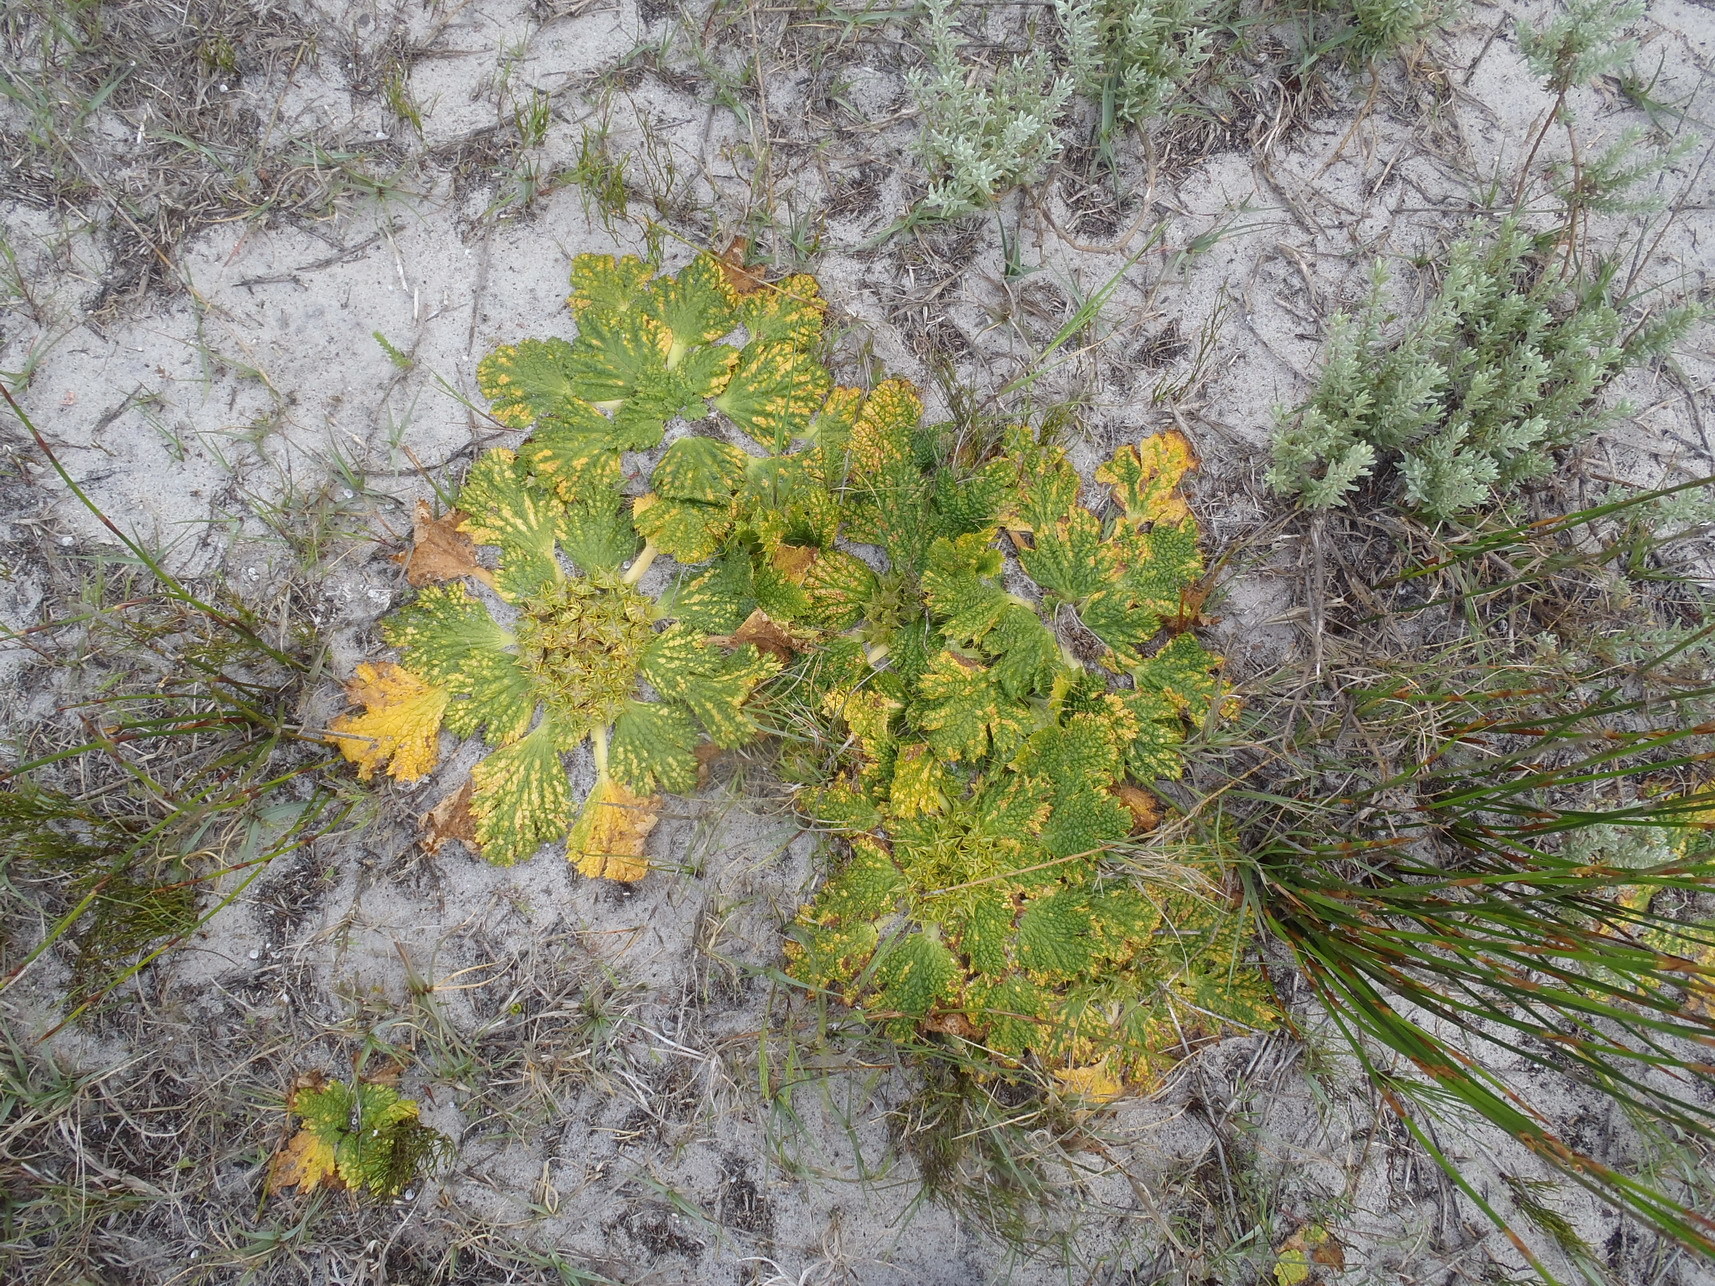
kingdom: Plantae
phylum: Tracheophyta
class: Magnoliopsida
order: Apiales
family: Apiaceae
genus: Arctopus
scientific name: Arctopus echinatus
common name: Platdoring
